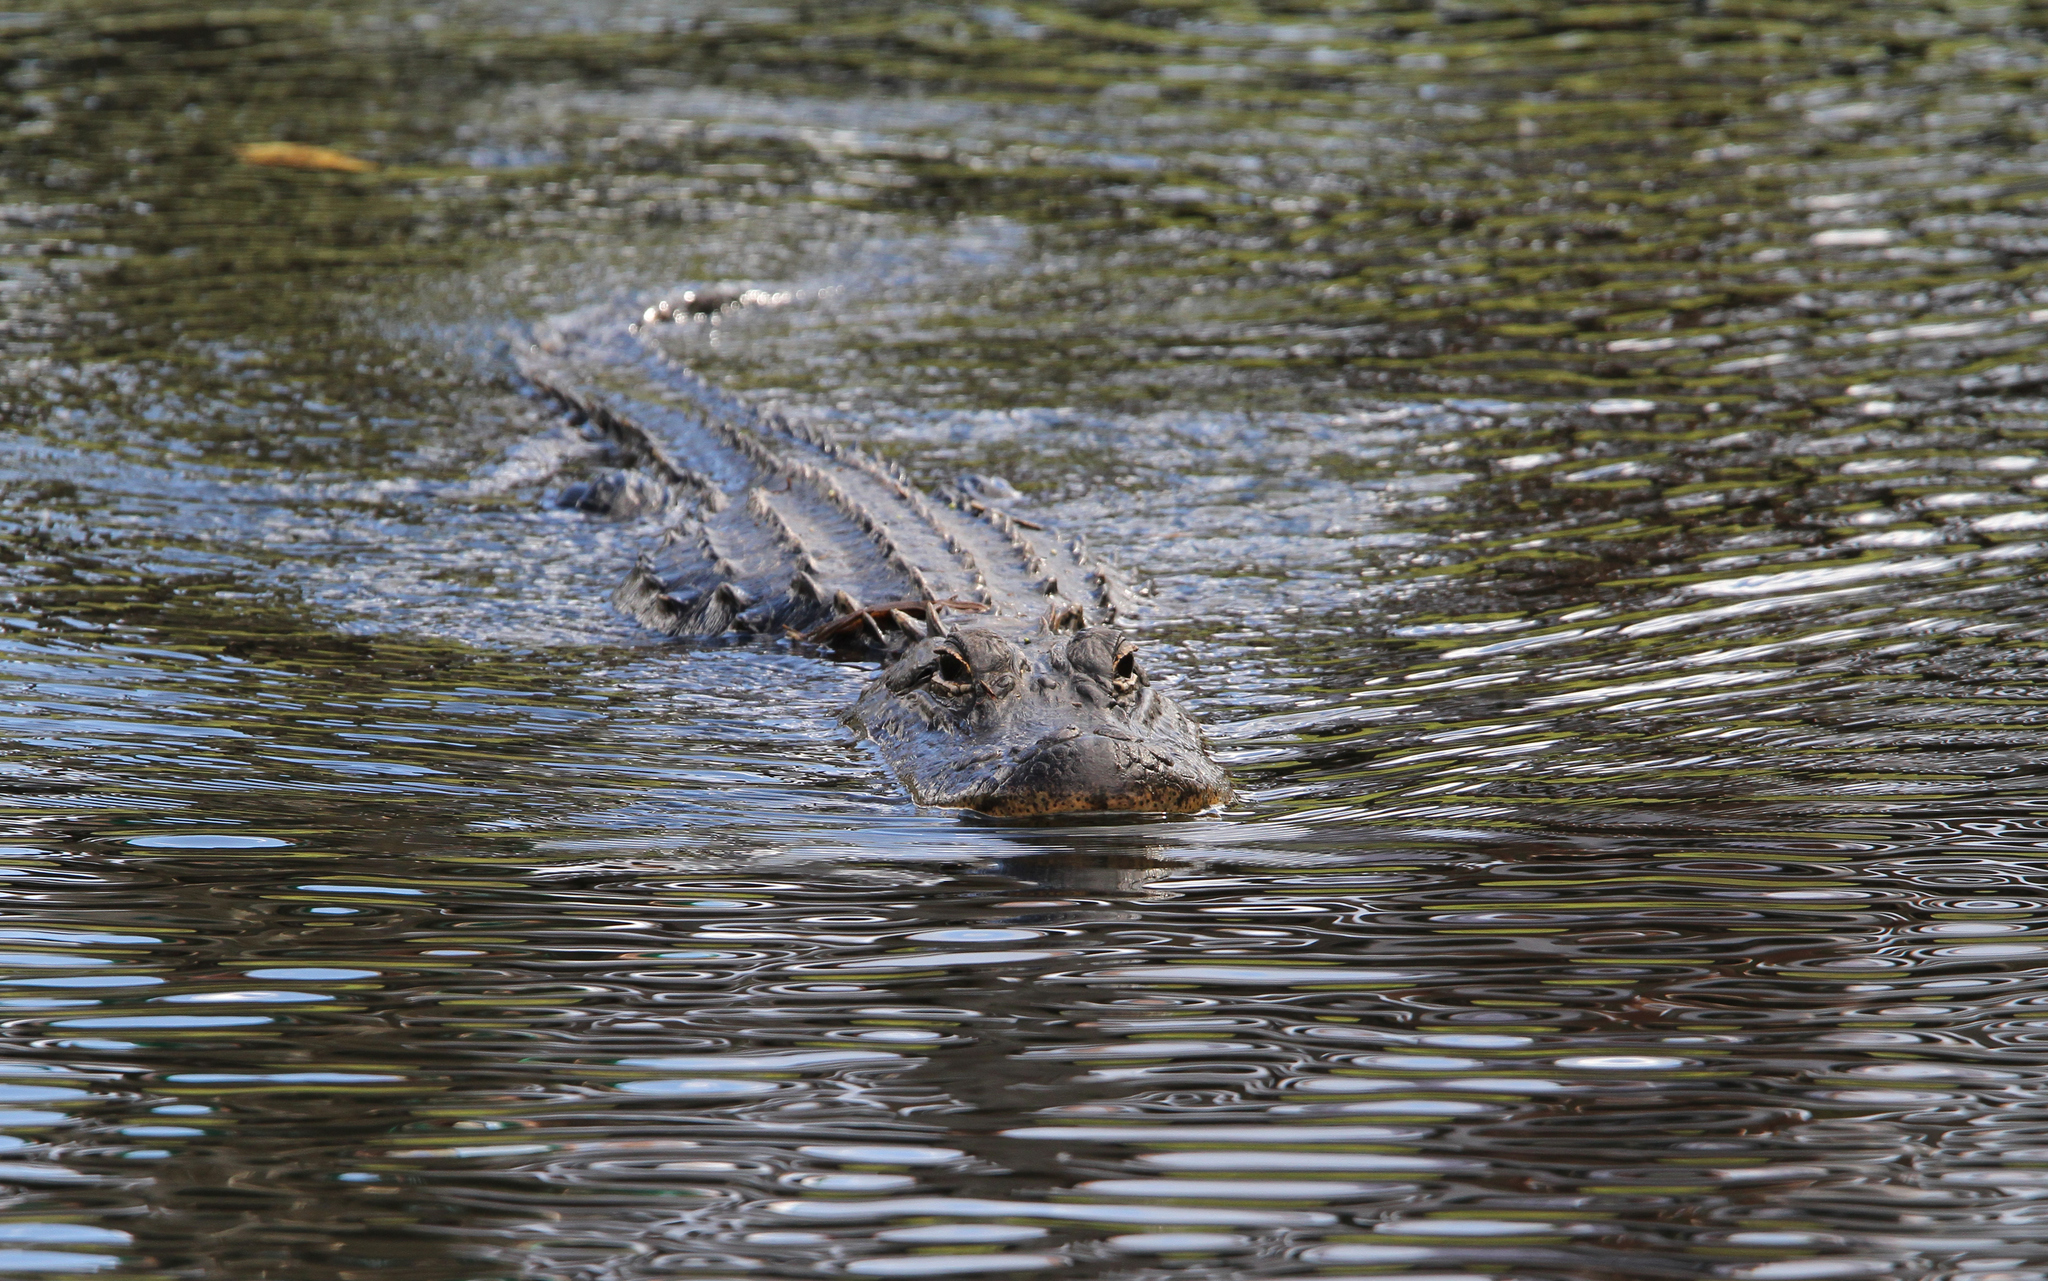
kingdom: Animalia
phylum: Chordata
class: Crocodylia
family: Alligatoridae
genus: Alligator
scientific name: Alligator mississippiensis
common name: American alligator
